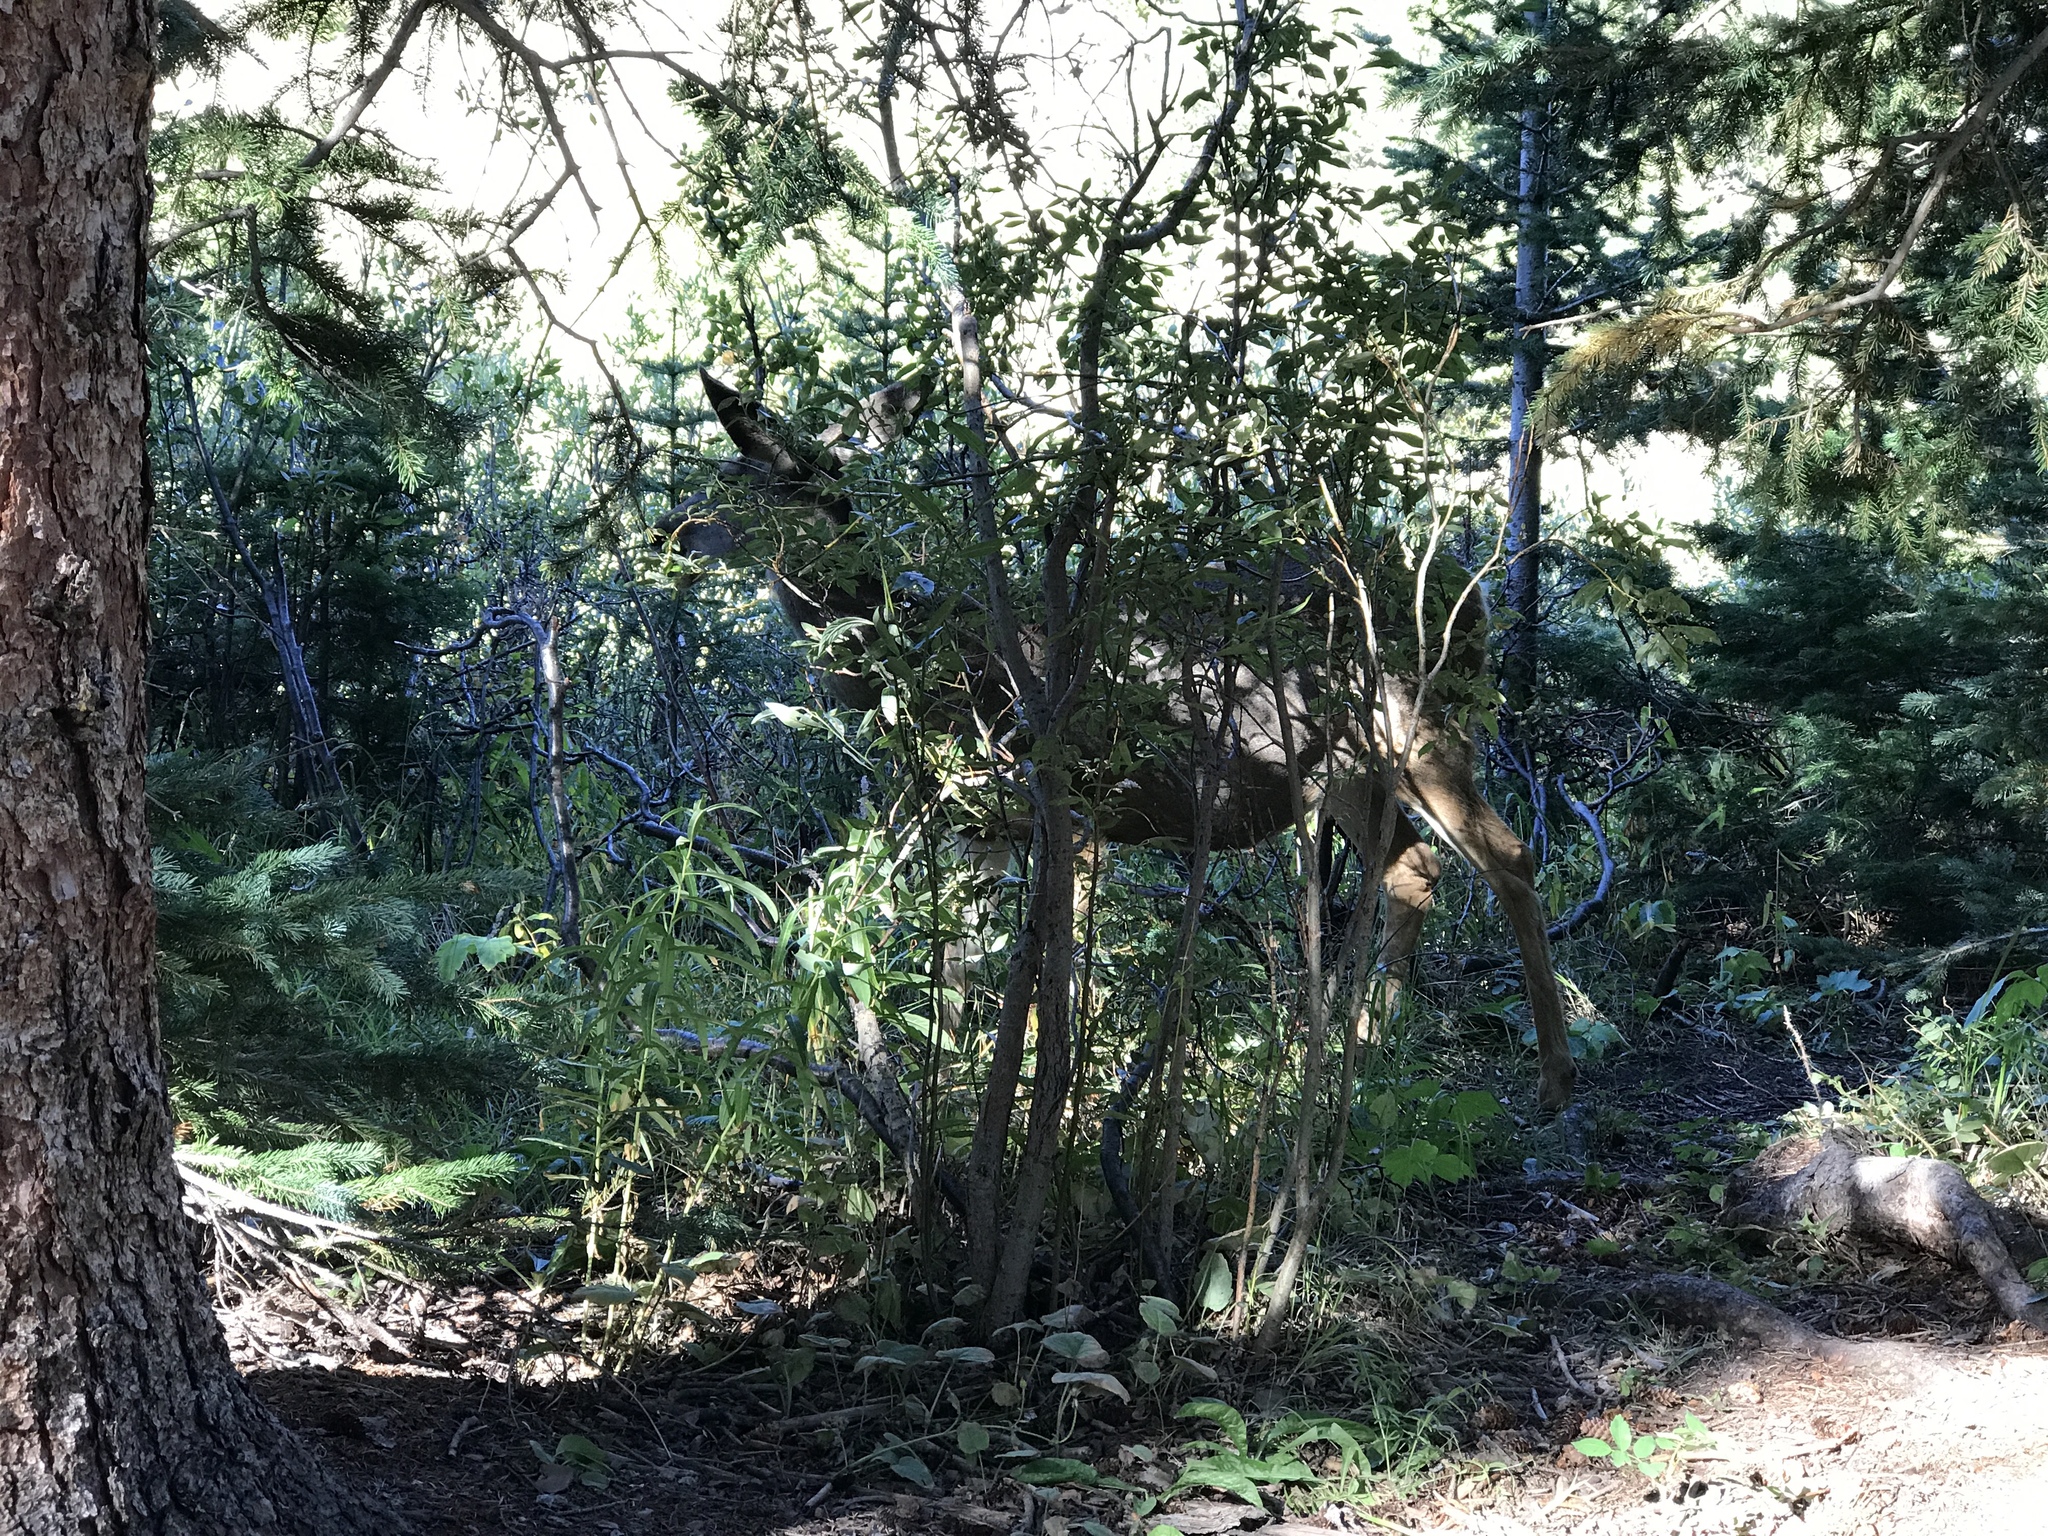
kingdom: Animalia
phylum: Chordata
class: Mammalia
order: Artiodactyla
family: Cervidae
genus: Odocoileus
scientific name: Odocoileus hemionus
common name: Mule deer
